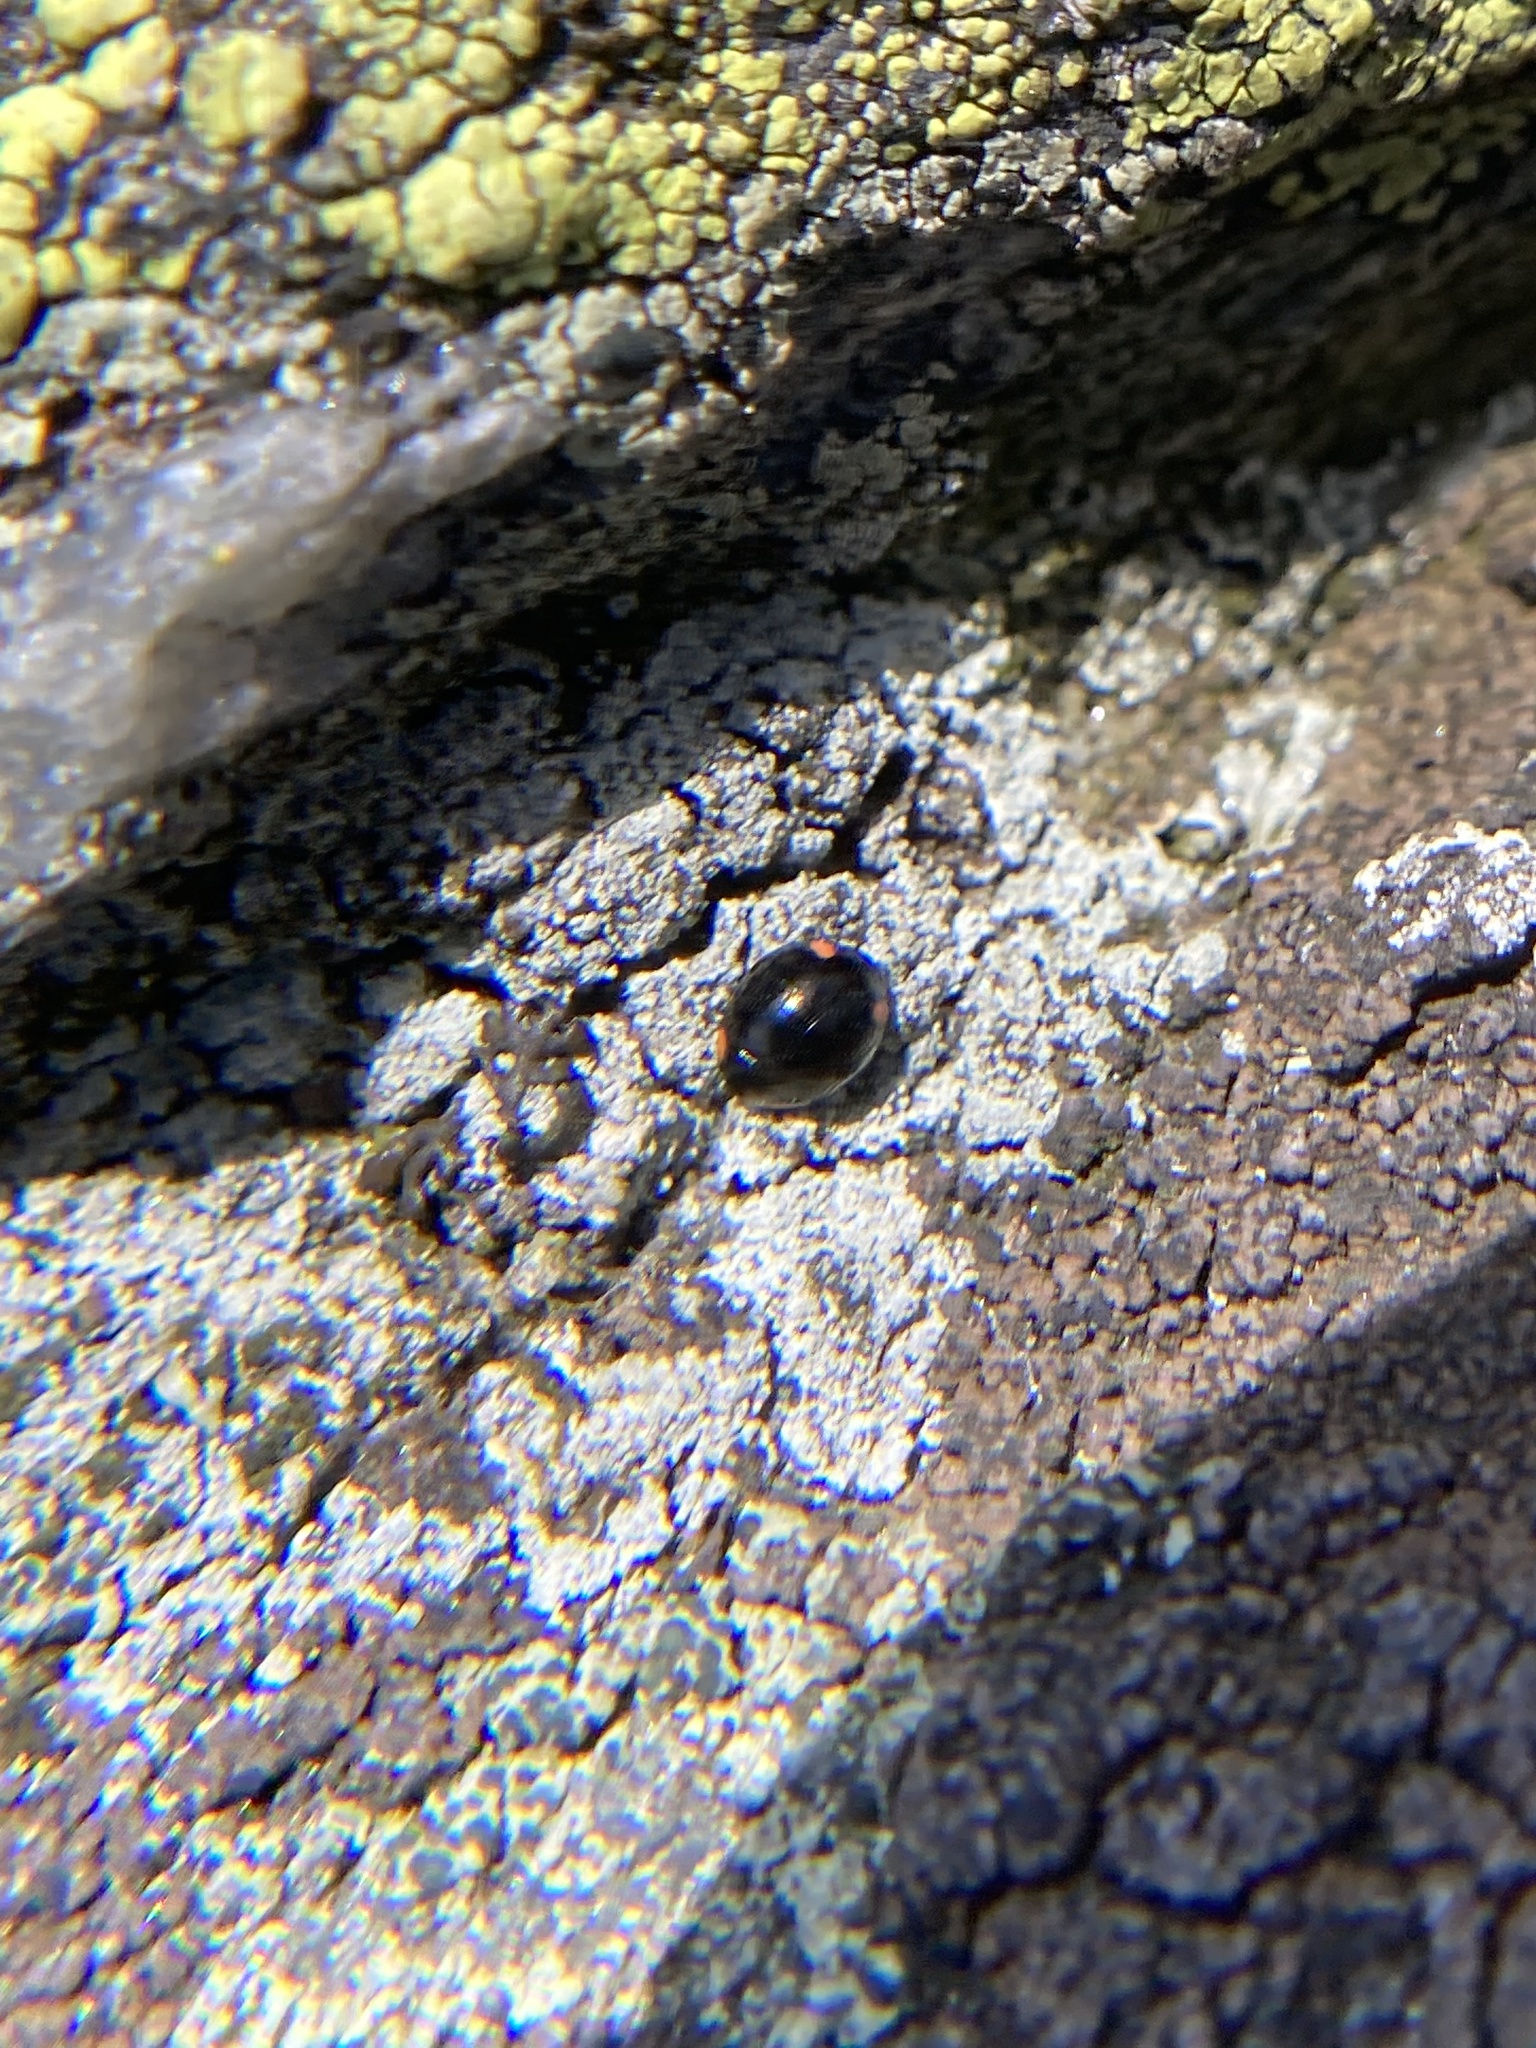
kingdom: Animalia
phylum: Arthropoda
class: Insecta
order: Coleoptera
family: Coccinellidae
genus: Hyperaspis
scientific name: Hyperaspis bigeminata
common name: Bigeminate sigil lady beetle
